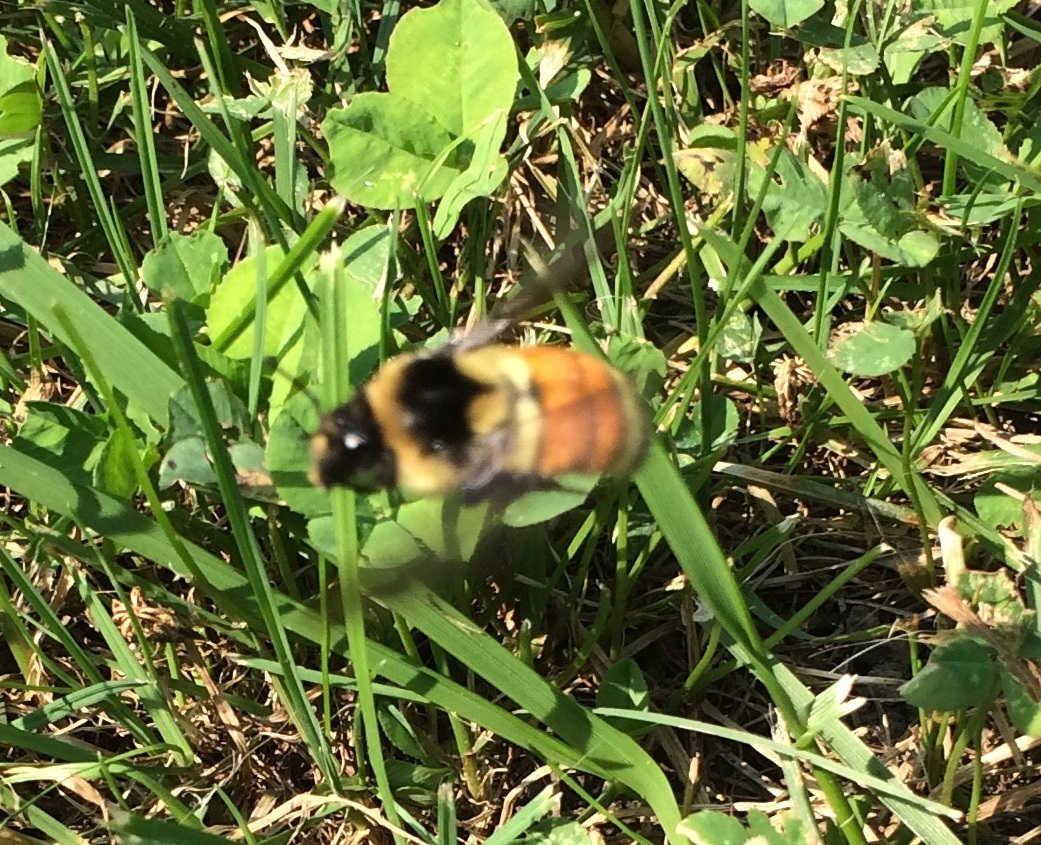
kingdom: Animalia
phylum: Arthropoda
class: Insecta
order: Hymenoptera
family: Apidae
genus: Bombus
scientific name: Bombus ternarius
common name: Tri-colored bumble bee
